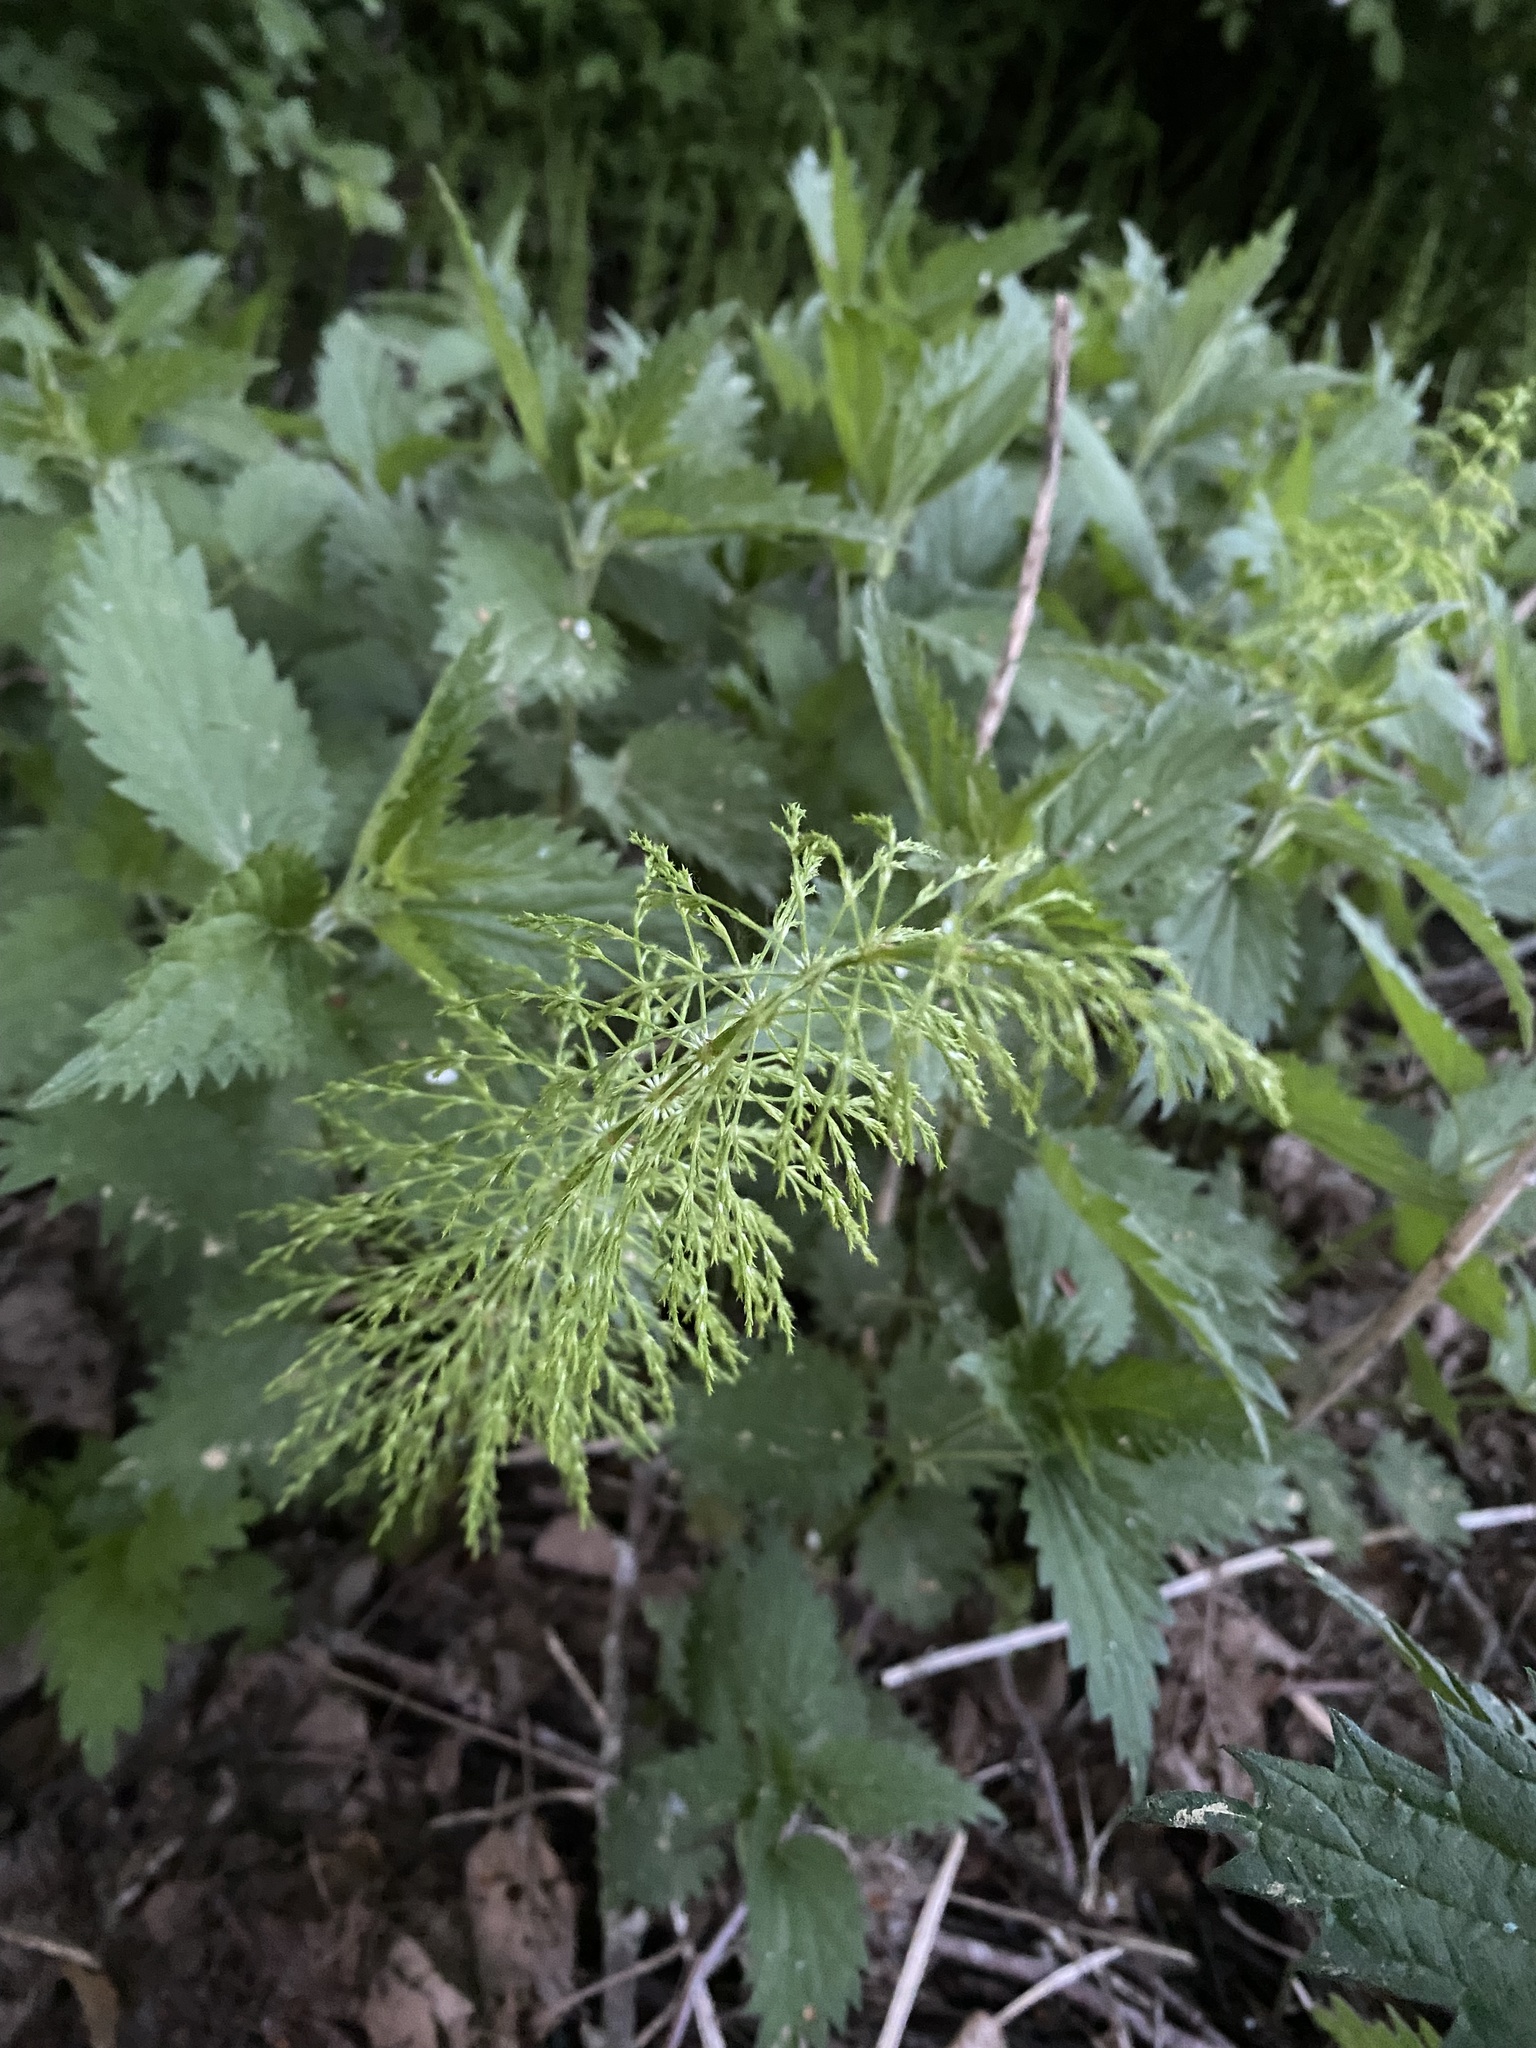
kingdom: Plantae
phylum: Tracheophyta
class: Polypodiopsida
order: Equisetales
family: Equisetaceae
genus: Equisetum
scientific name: Equisetum sylvaticum
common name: Wood horsetail
